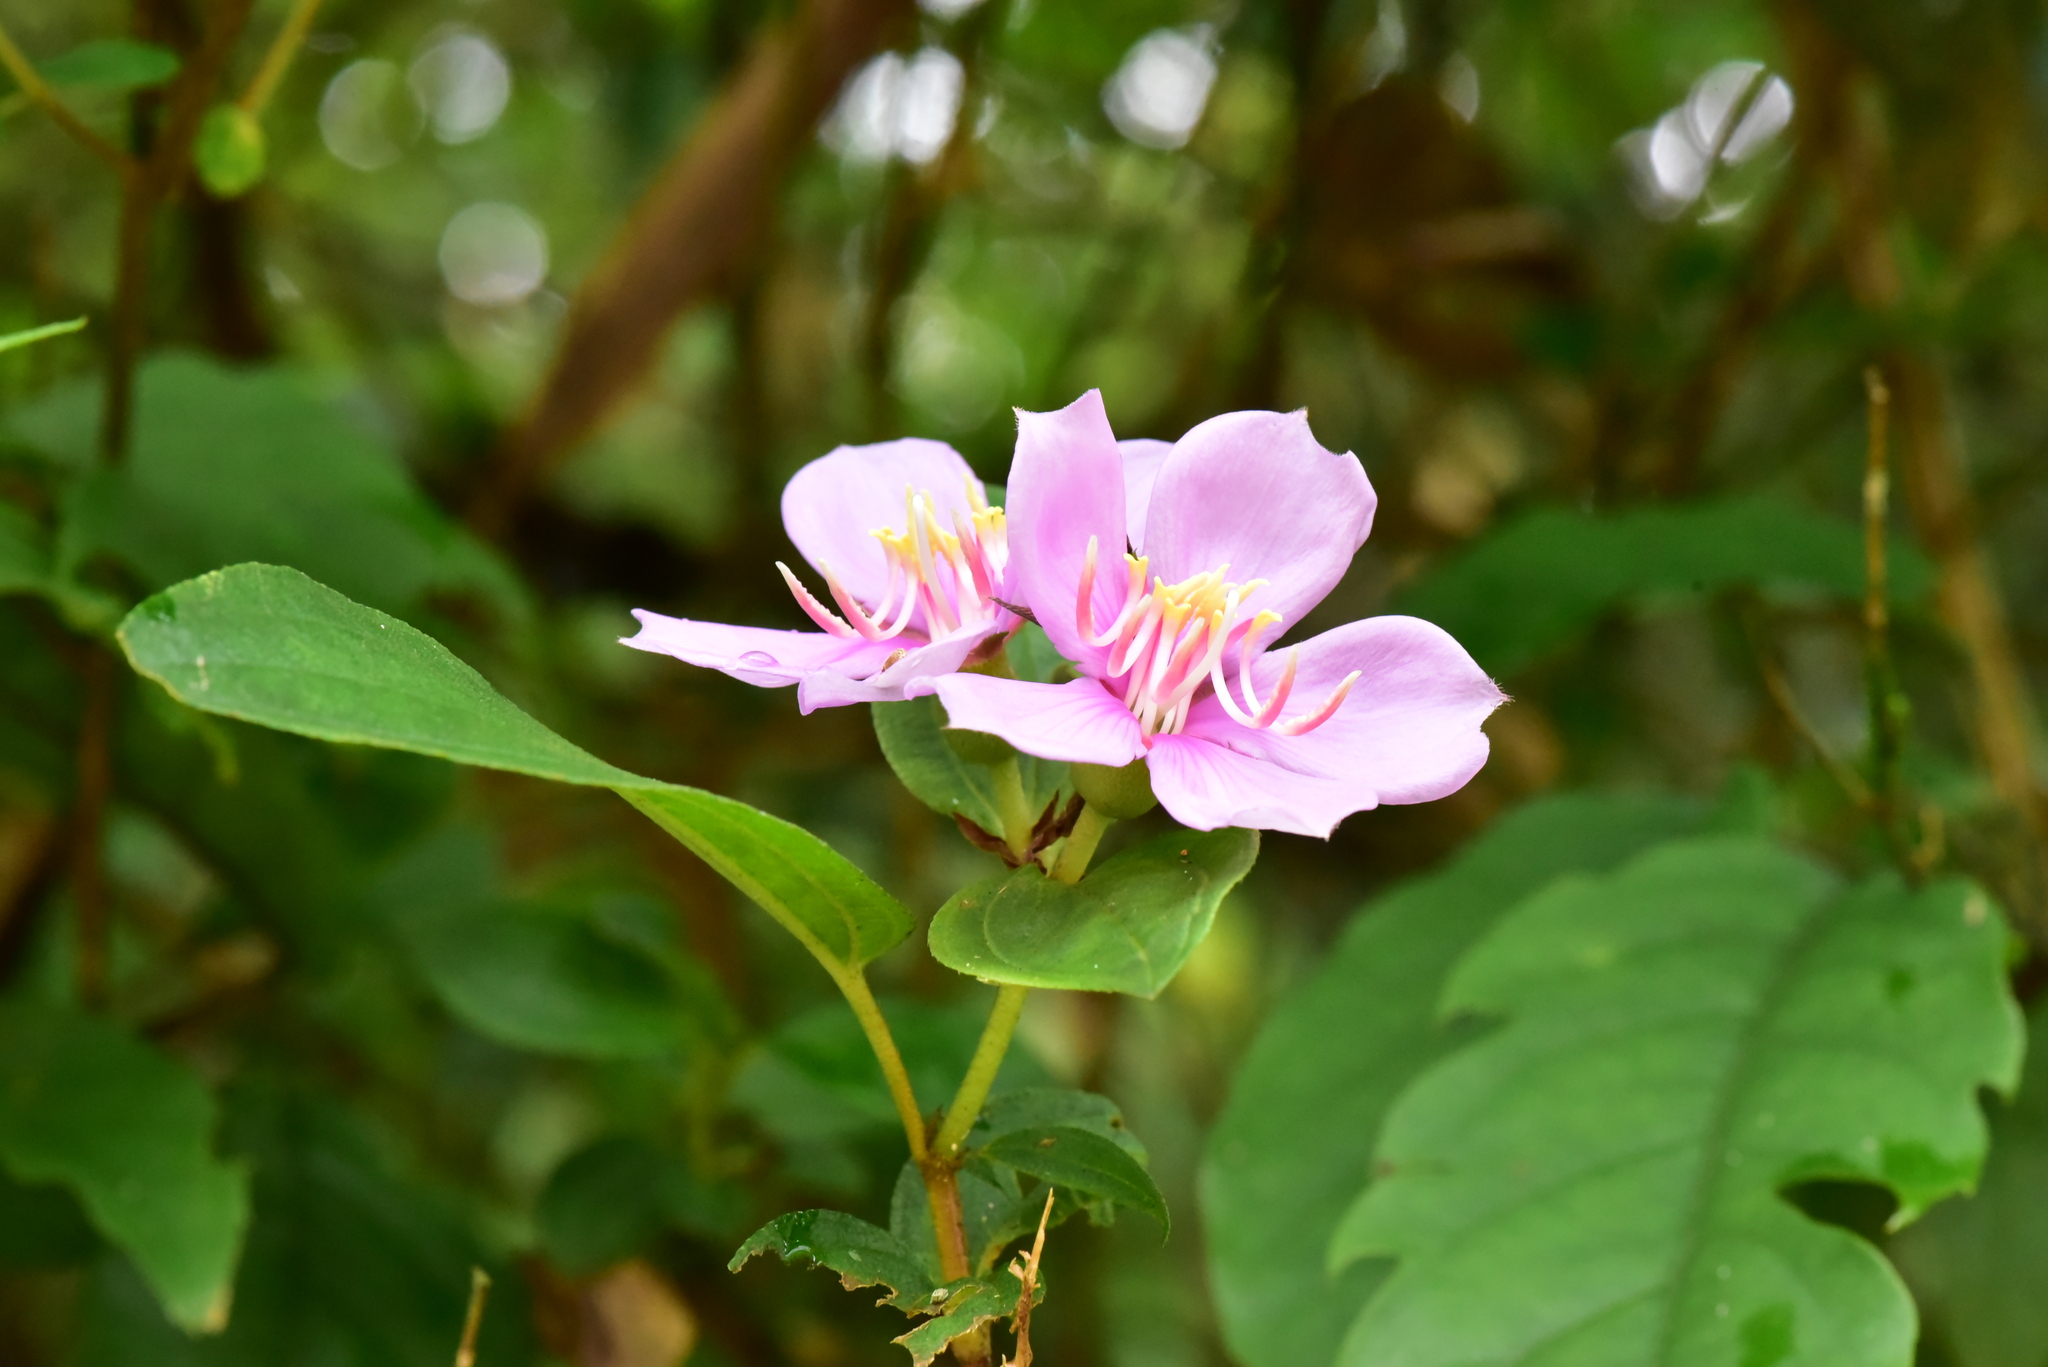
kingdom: Plantae
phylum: Tracheophyta
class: Magnoliopsida
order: Myrtales
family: Melastomataceae
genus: Melastoma
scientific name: Melastoma malabathricum
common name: Indian-rhododendron
